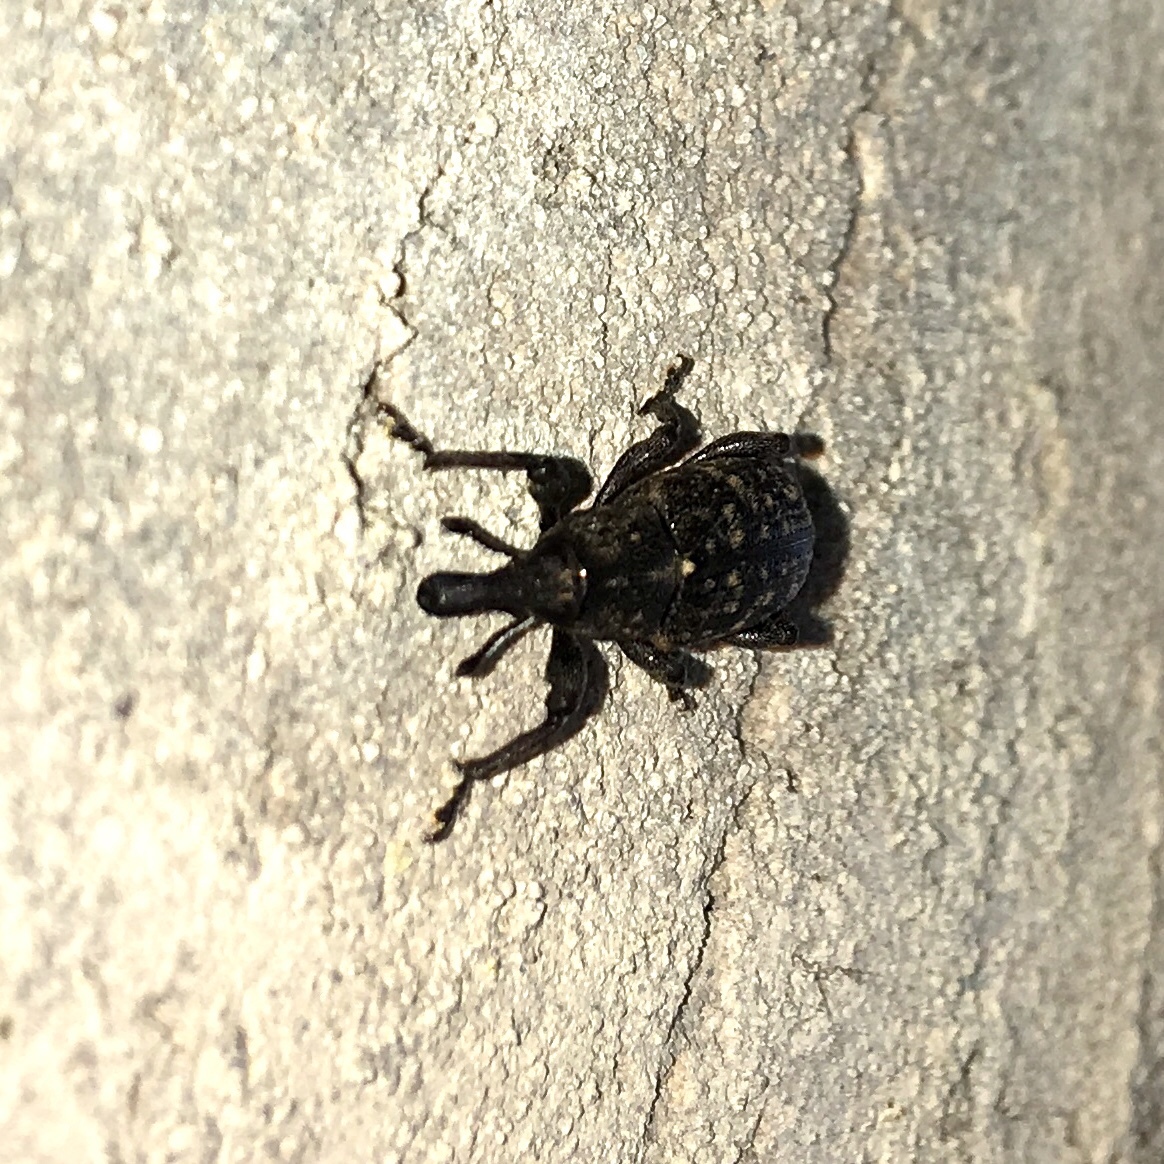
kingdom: Animalia
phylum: Arthropoda
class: Insecta
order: Coleoptera
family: Curculionidae
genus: Hylobius
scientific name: Hylobius pales
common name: Pales weevil
